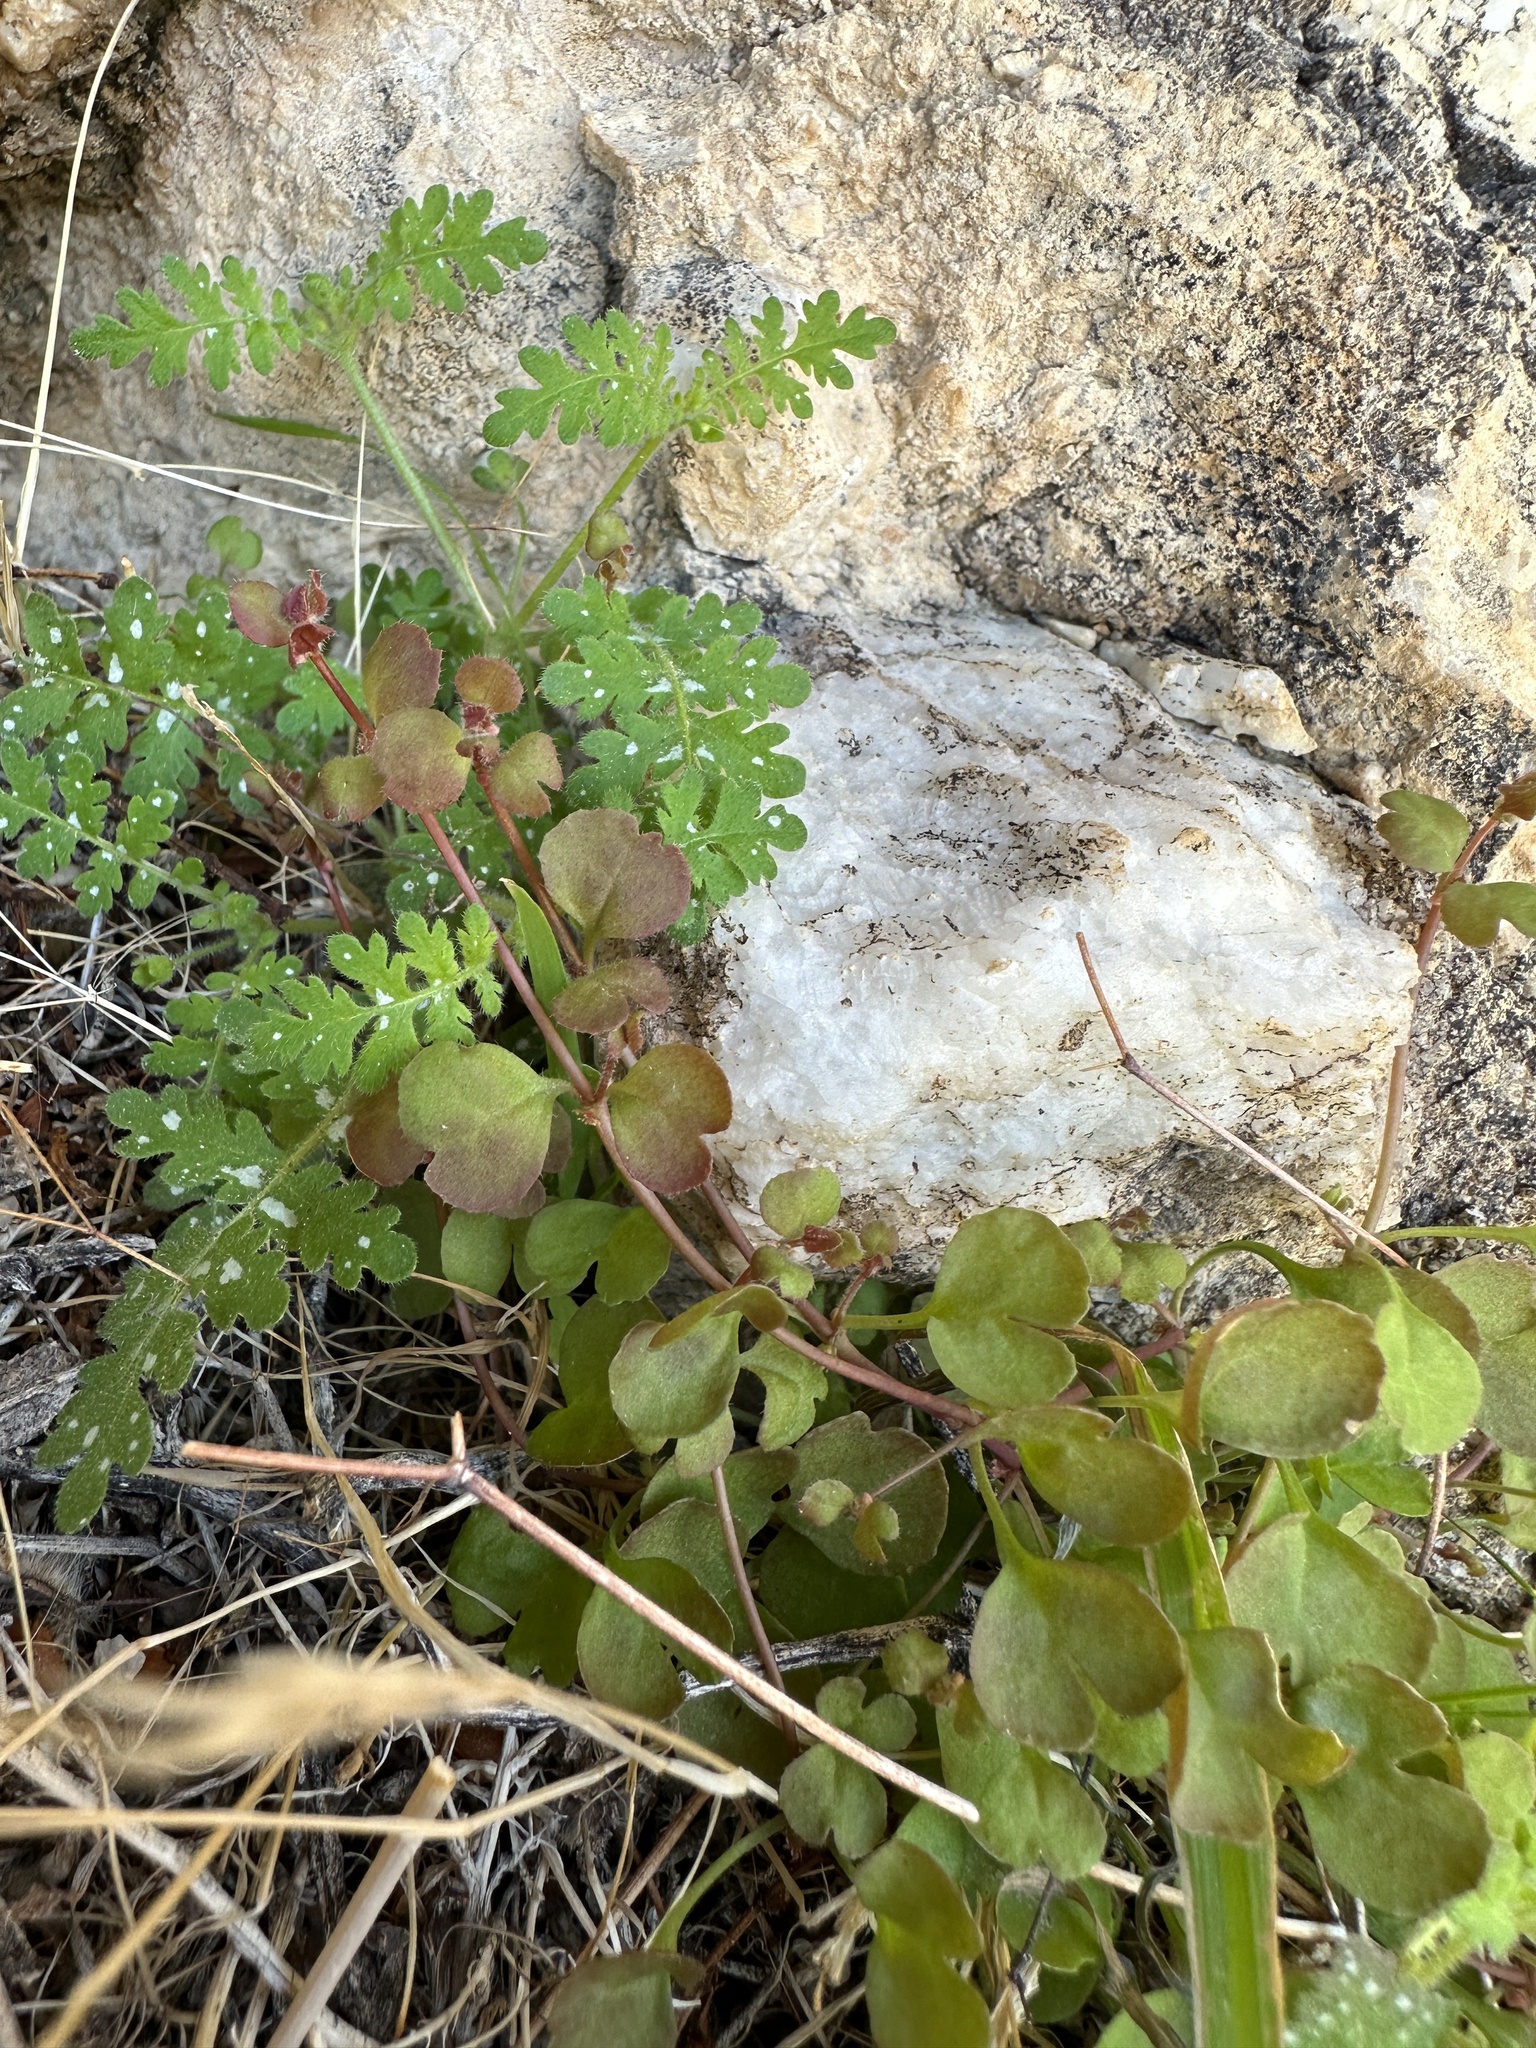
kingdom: Plantae
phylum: Tracheophyta
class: Magnoliopsida
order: Caryophyllales
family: Polygonaceae
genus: Pterostegia
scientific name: Pterostegia drymarioides
